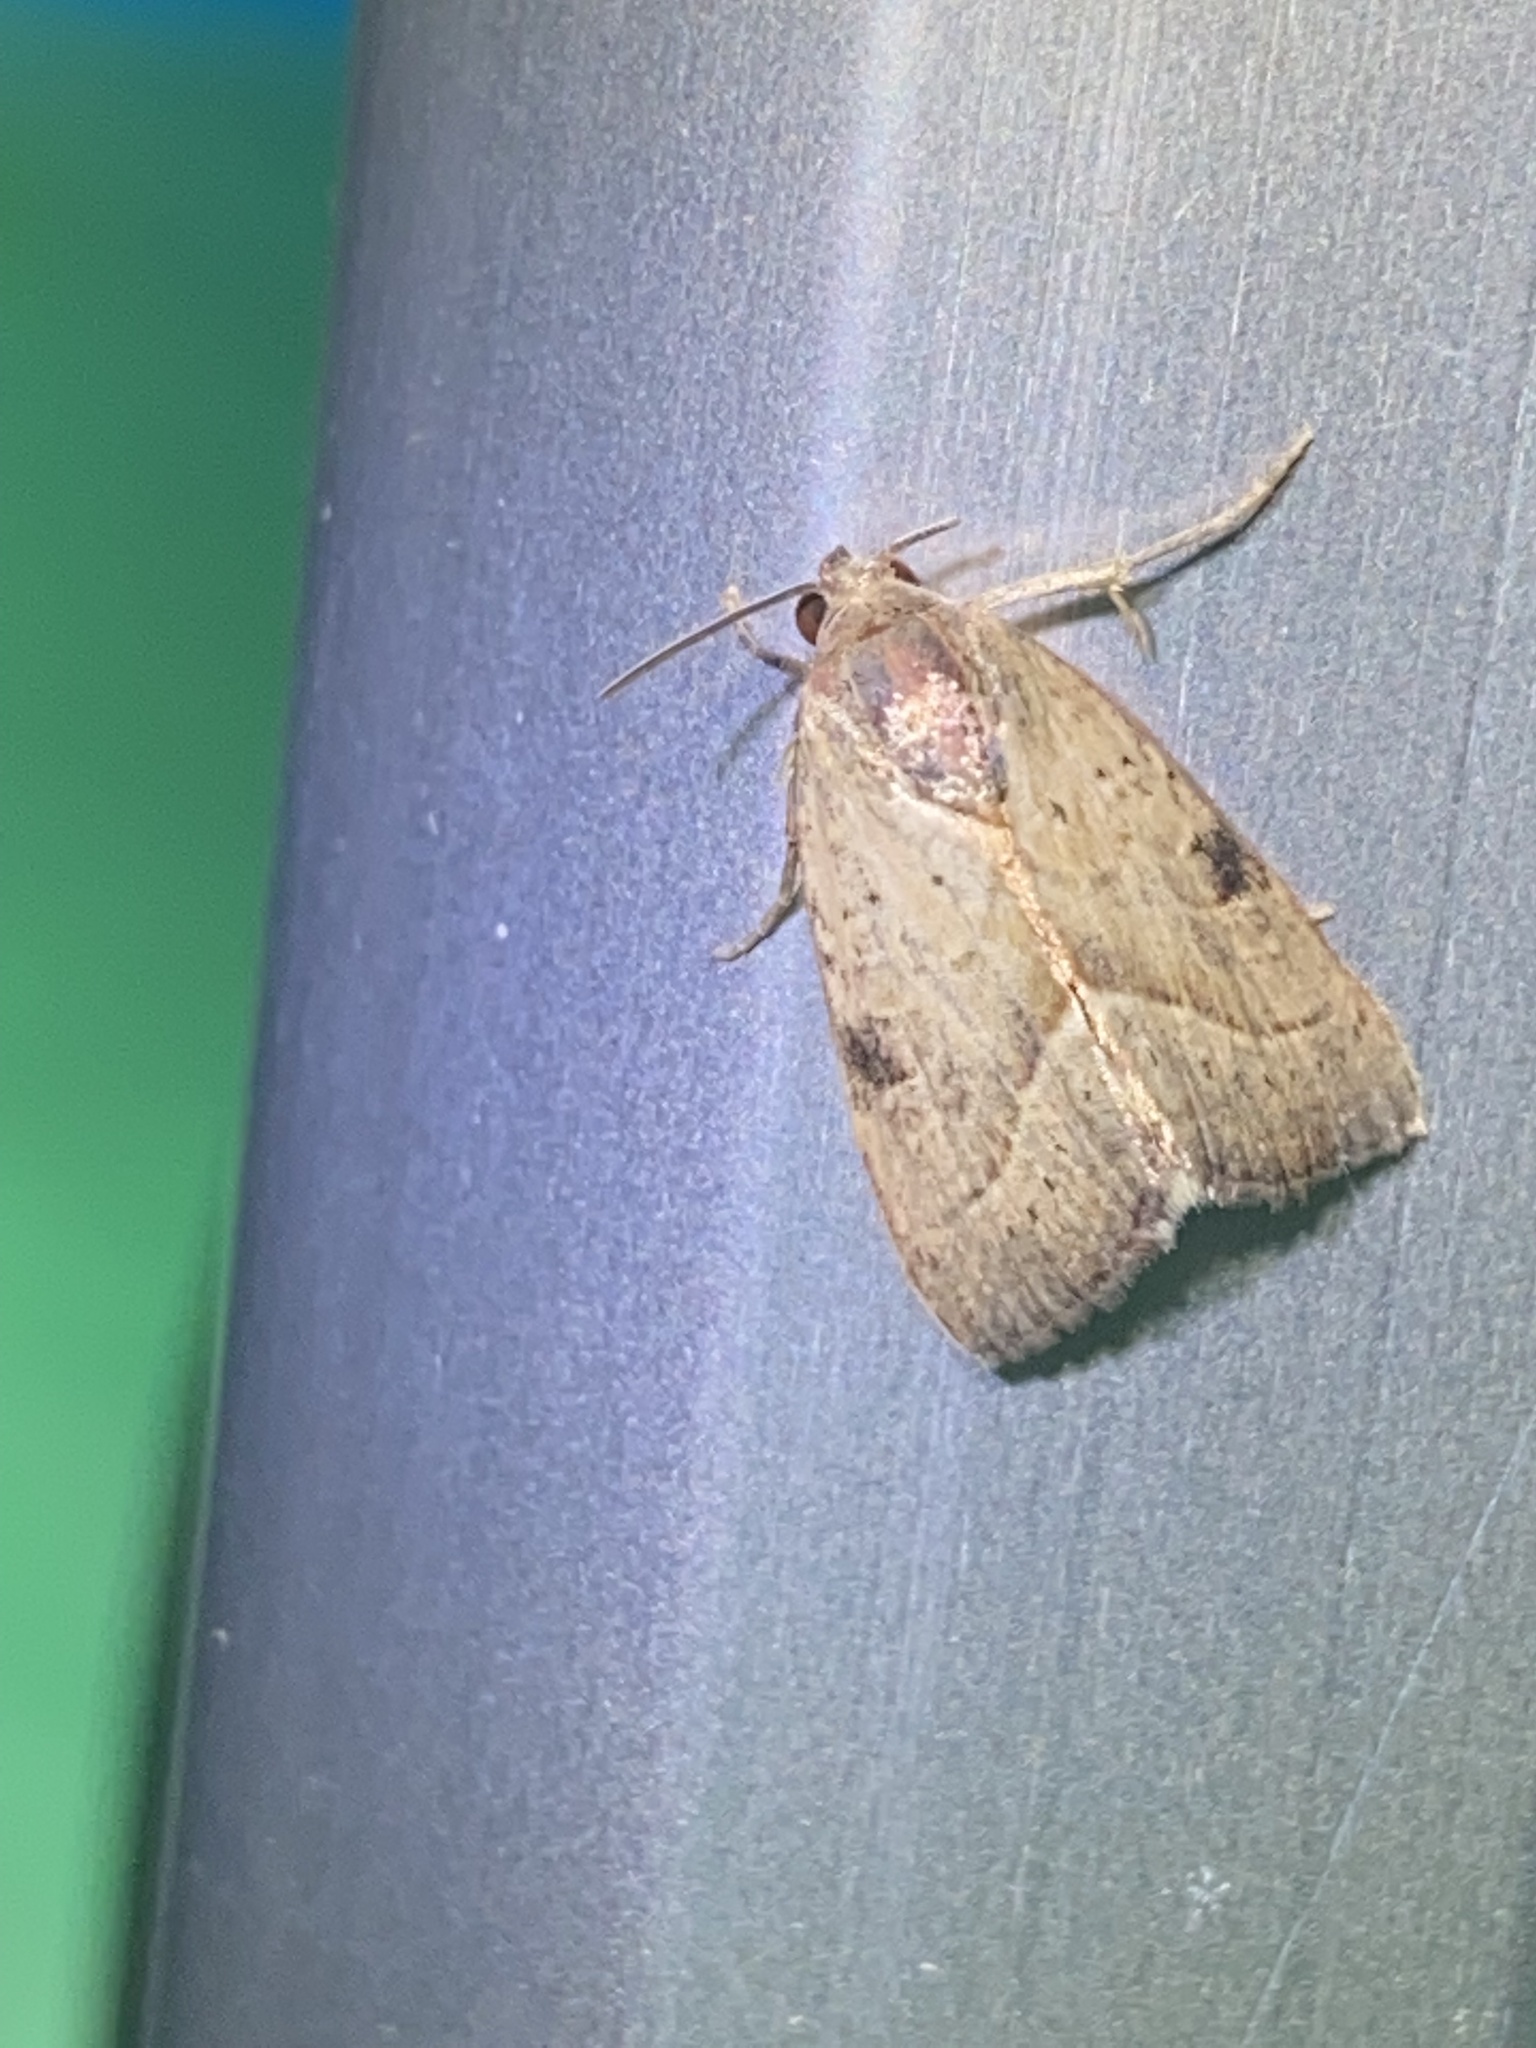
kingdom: Animalia
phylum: Arthropoda
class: Insecta
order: Lepidoptera
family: Noctuidae
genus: Galgula
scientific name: Galgula partita
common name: Wedgeling
